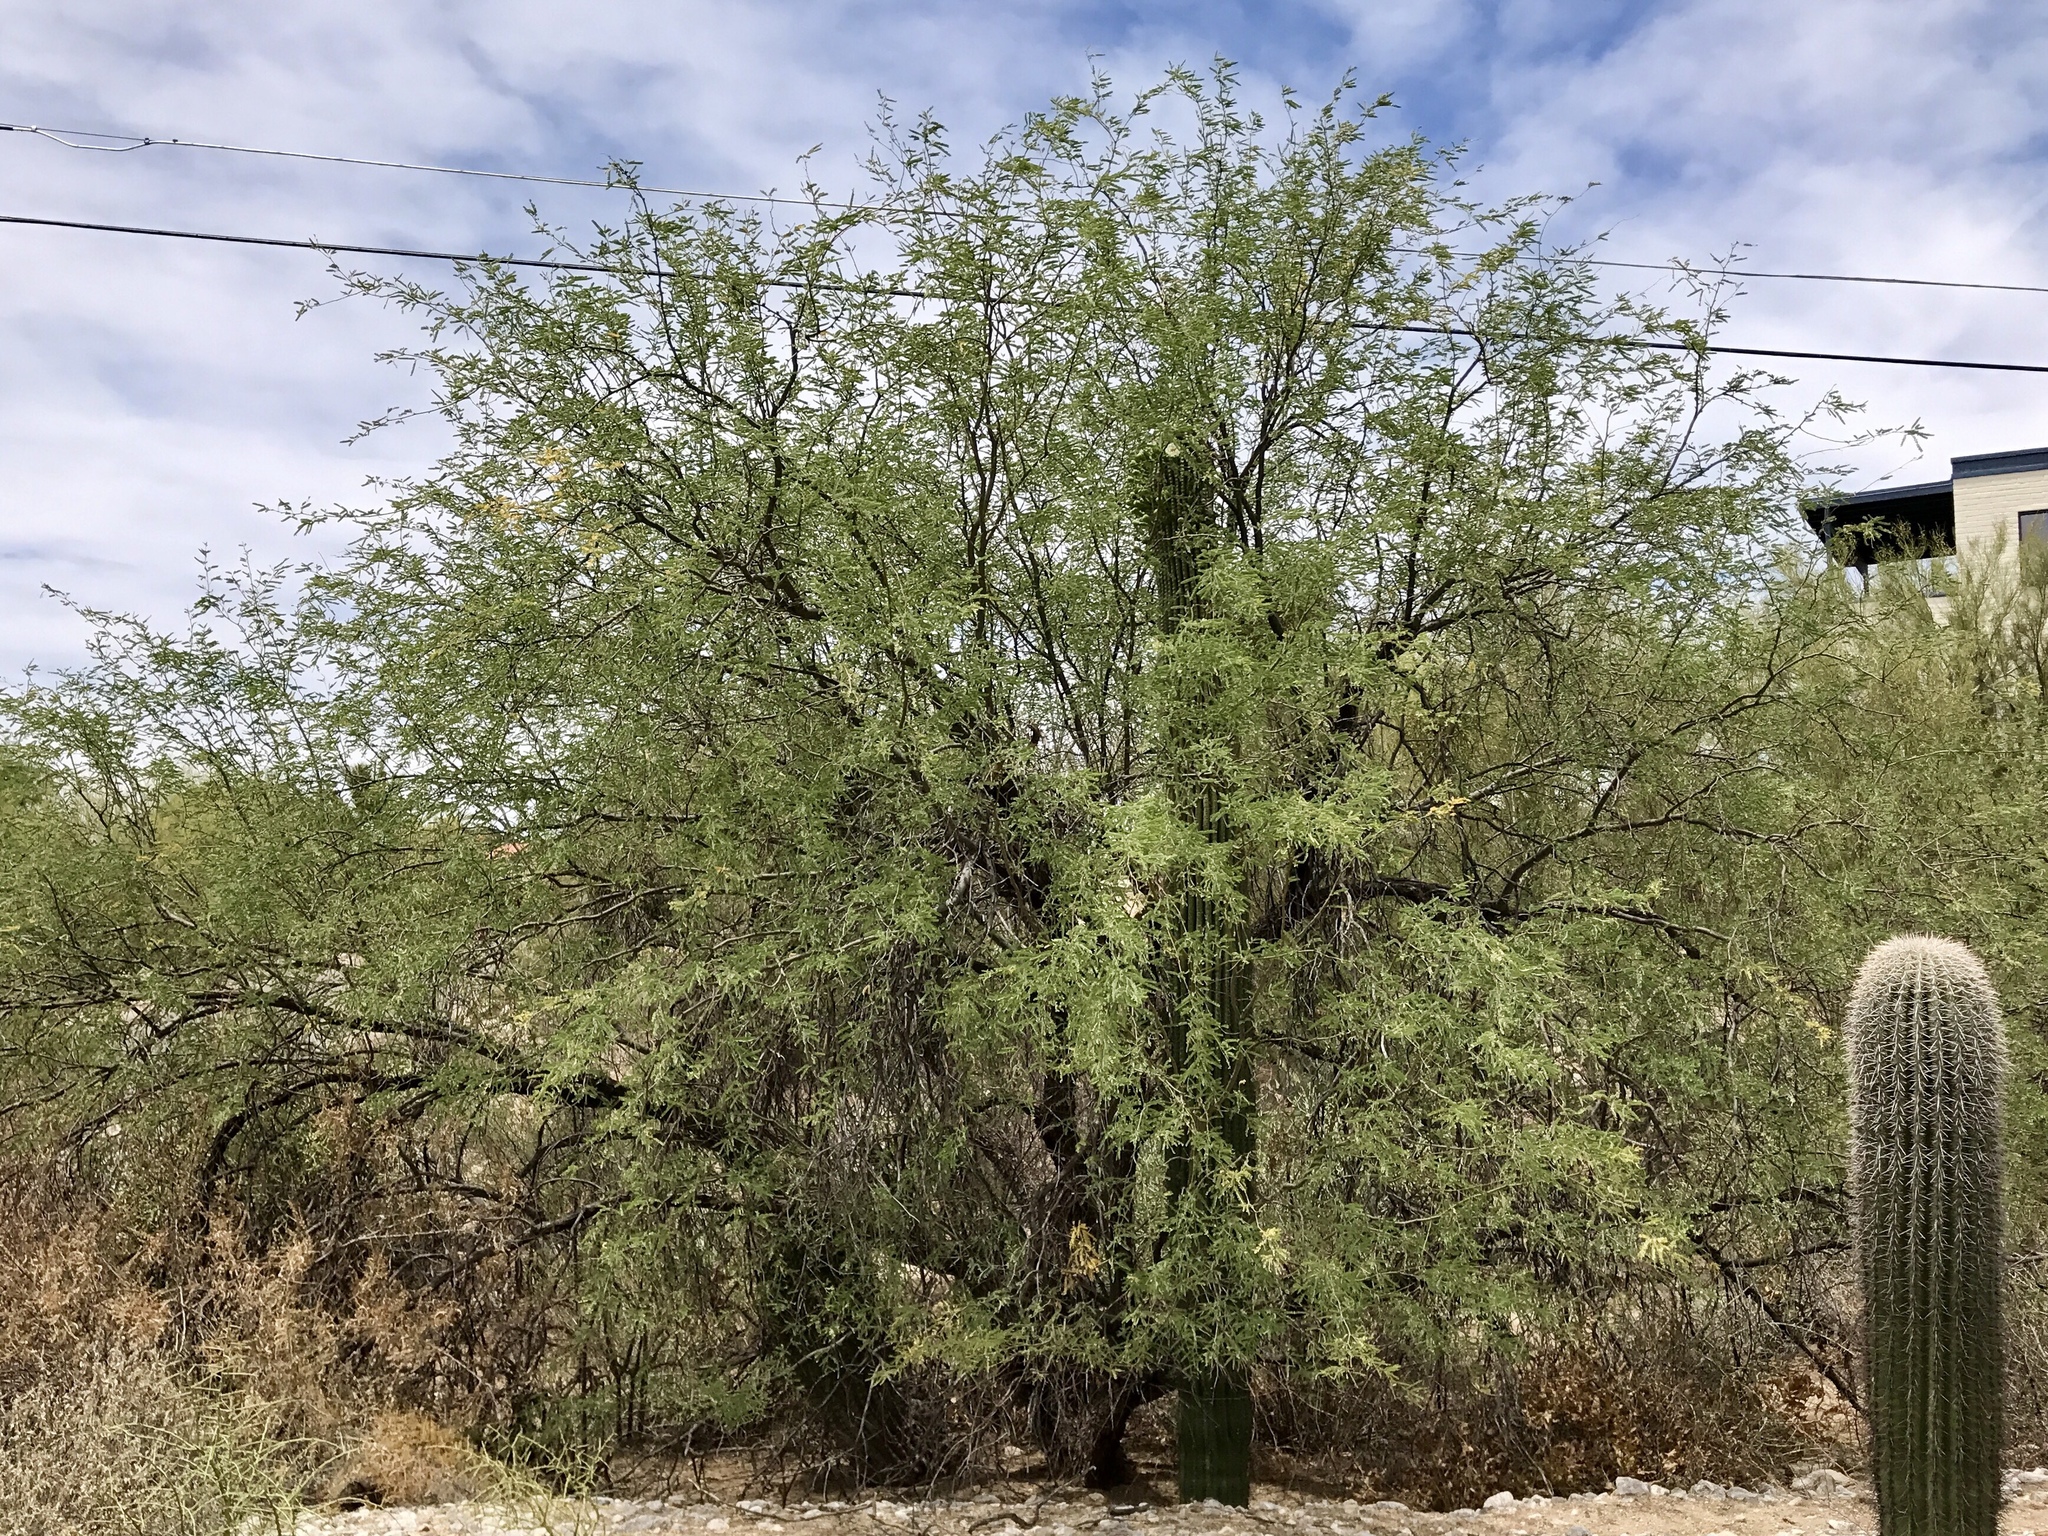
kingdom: Plantae
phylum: Tracheophyta
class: Magnoliopsida
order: Fabales
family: Fabaceae
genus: Prosopis
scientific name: Prosopis velutina
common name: Velvet mesquite
